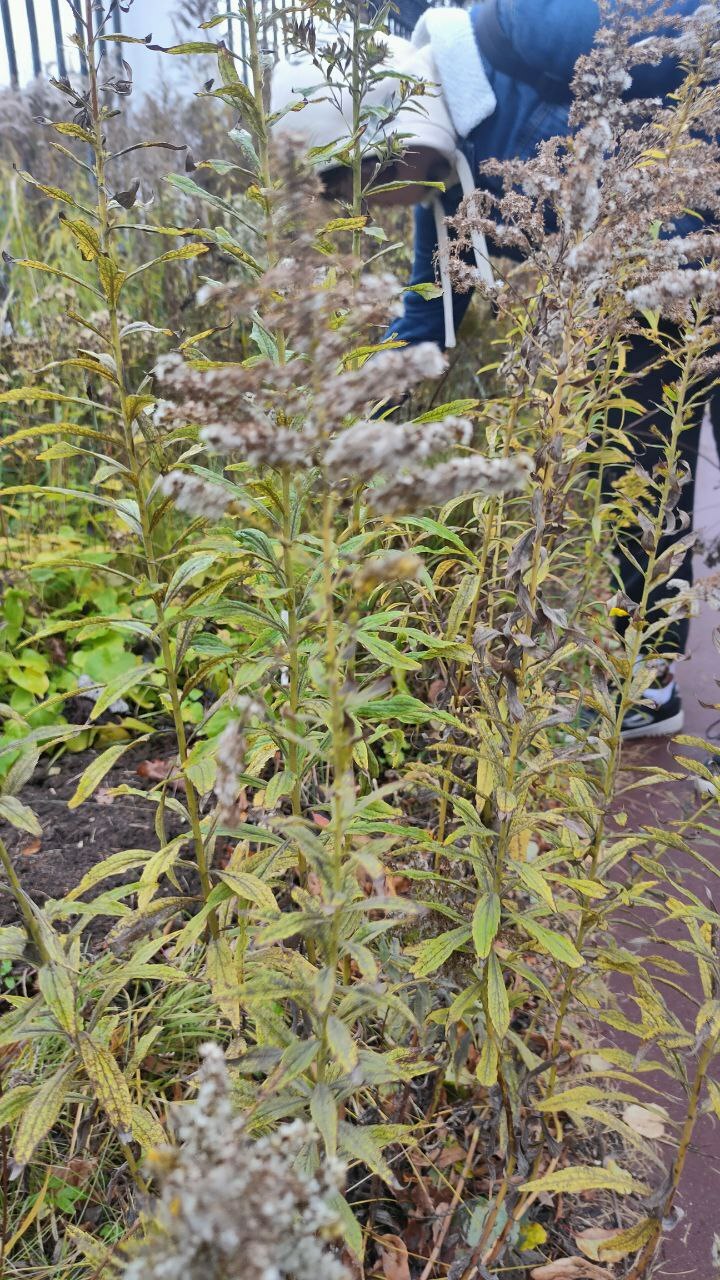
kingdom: Plantae
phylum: Tracheophyta
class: Magnoliopsida
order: Asterales
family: Asteraceae
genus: Solidago
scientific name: Solidago canadensis
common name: Canada goldenrod
